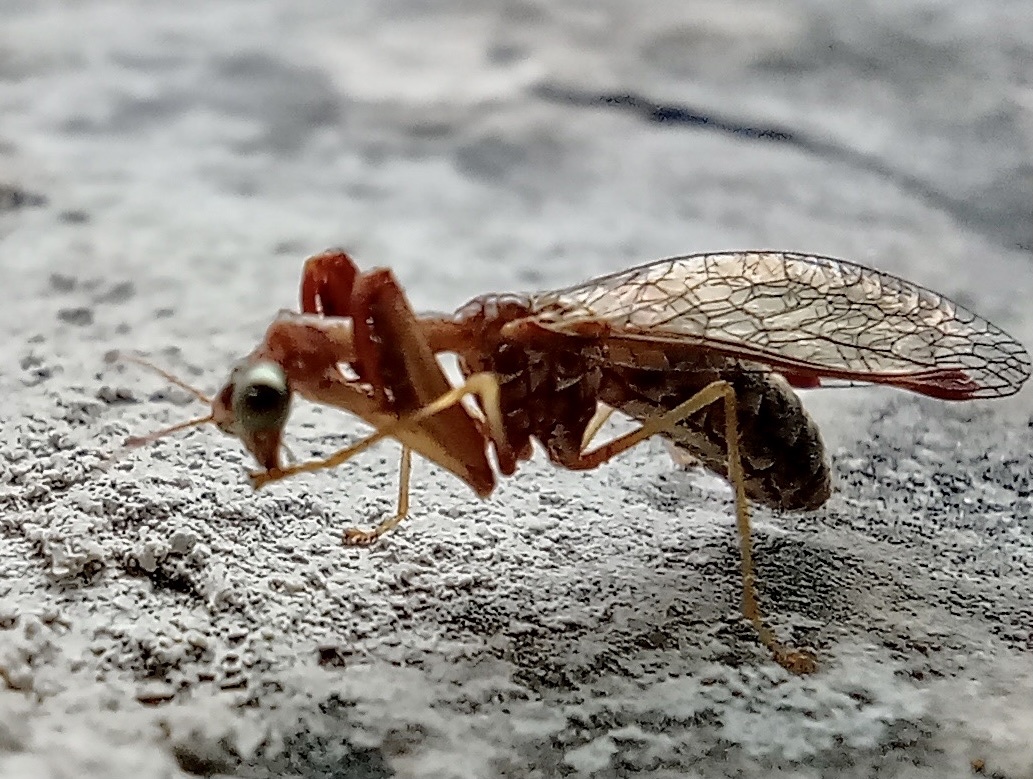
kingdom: Animalia
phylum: Arthropoda
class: Insecta
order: Neuroptera
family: Mantispidae
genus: Mantispa
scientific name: Mantispa styriaca
